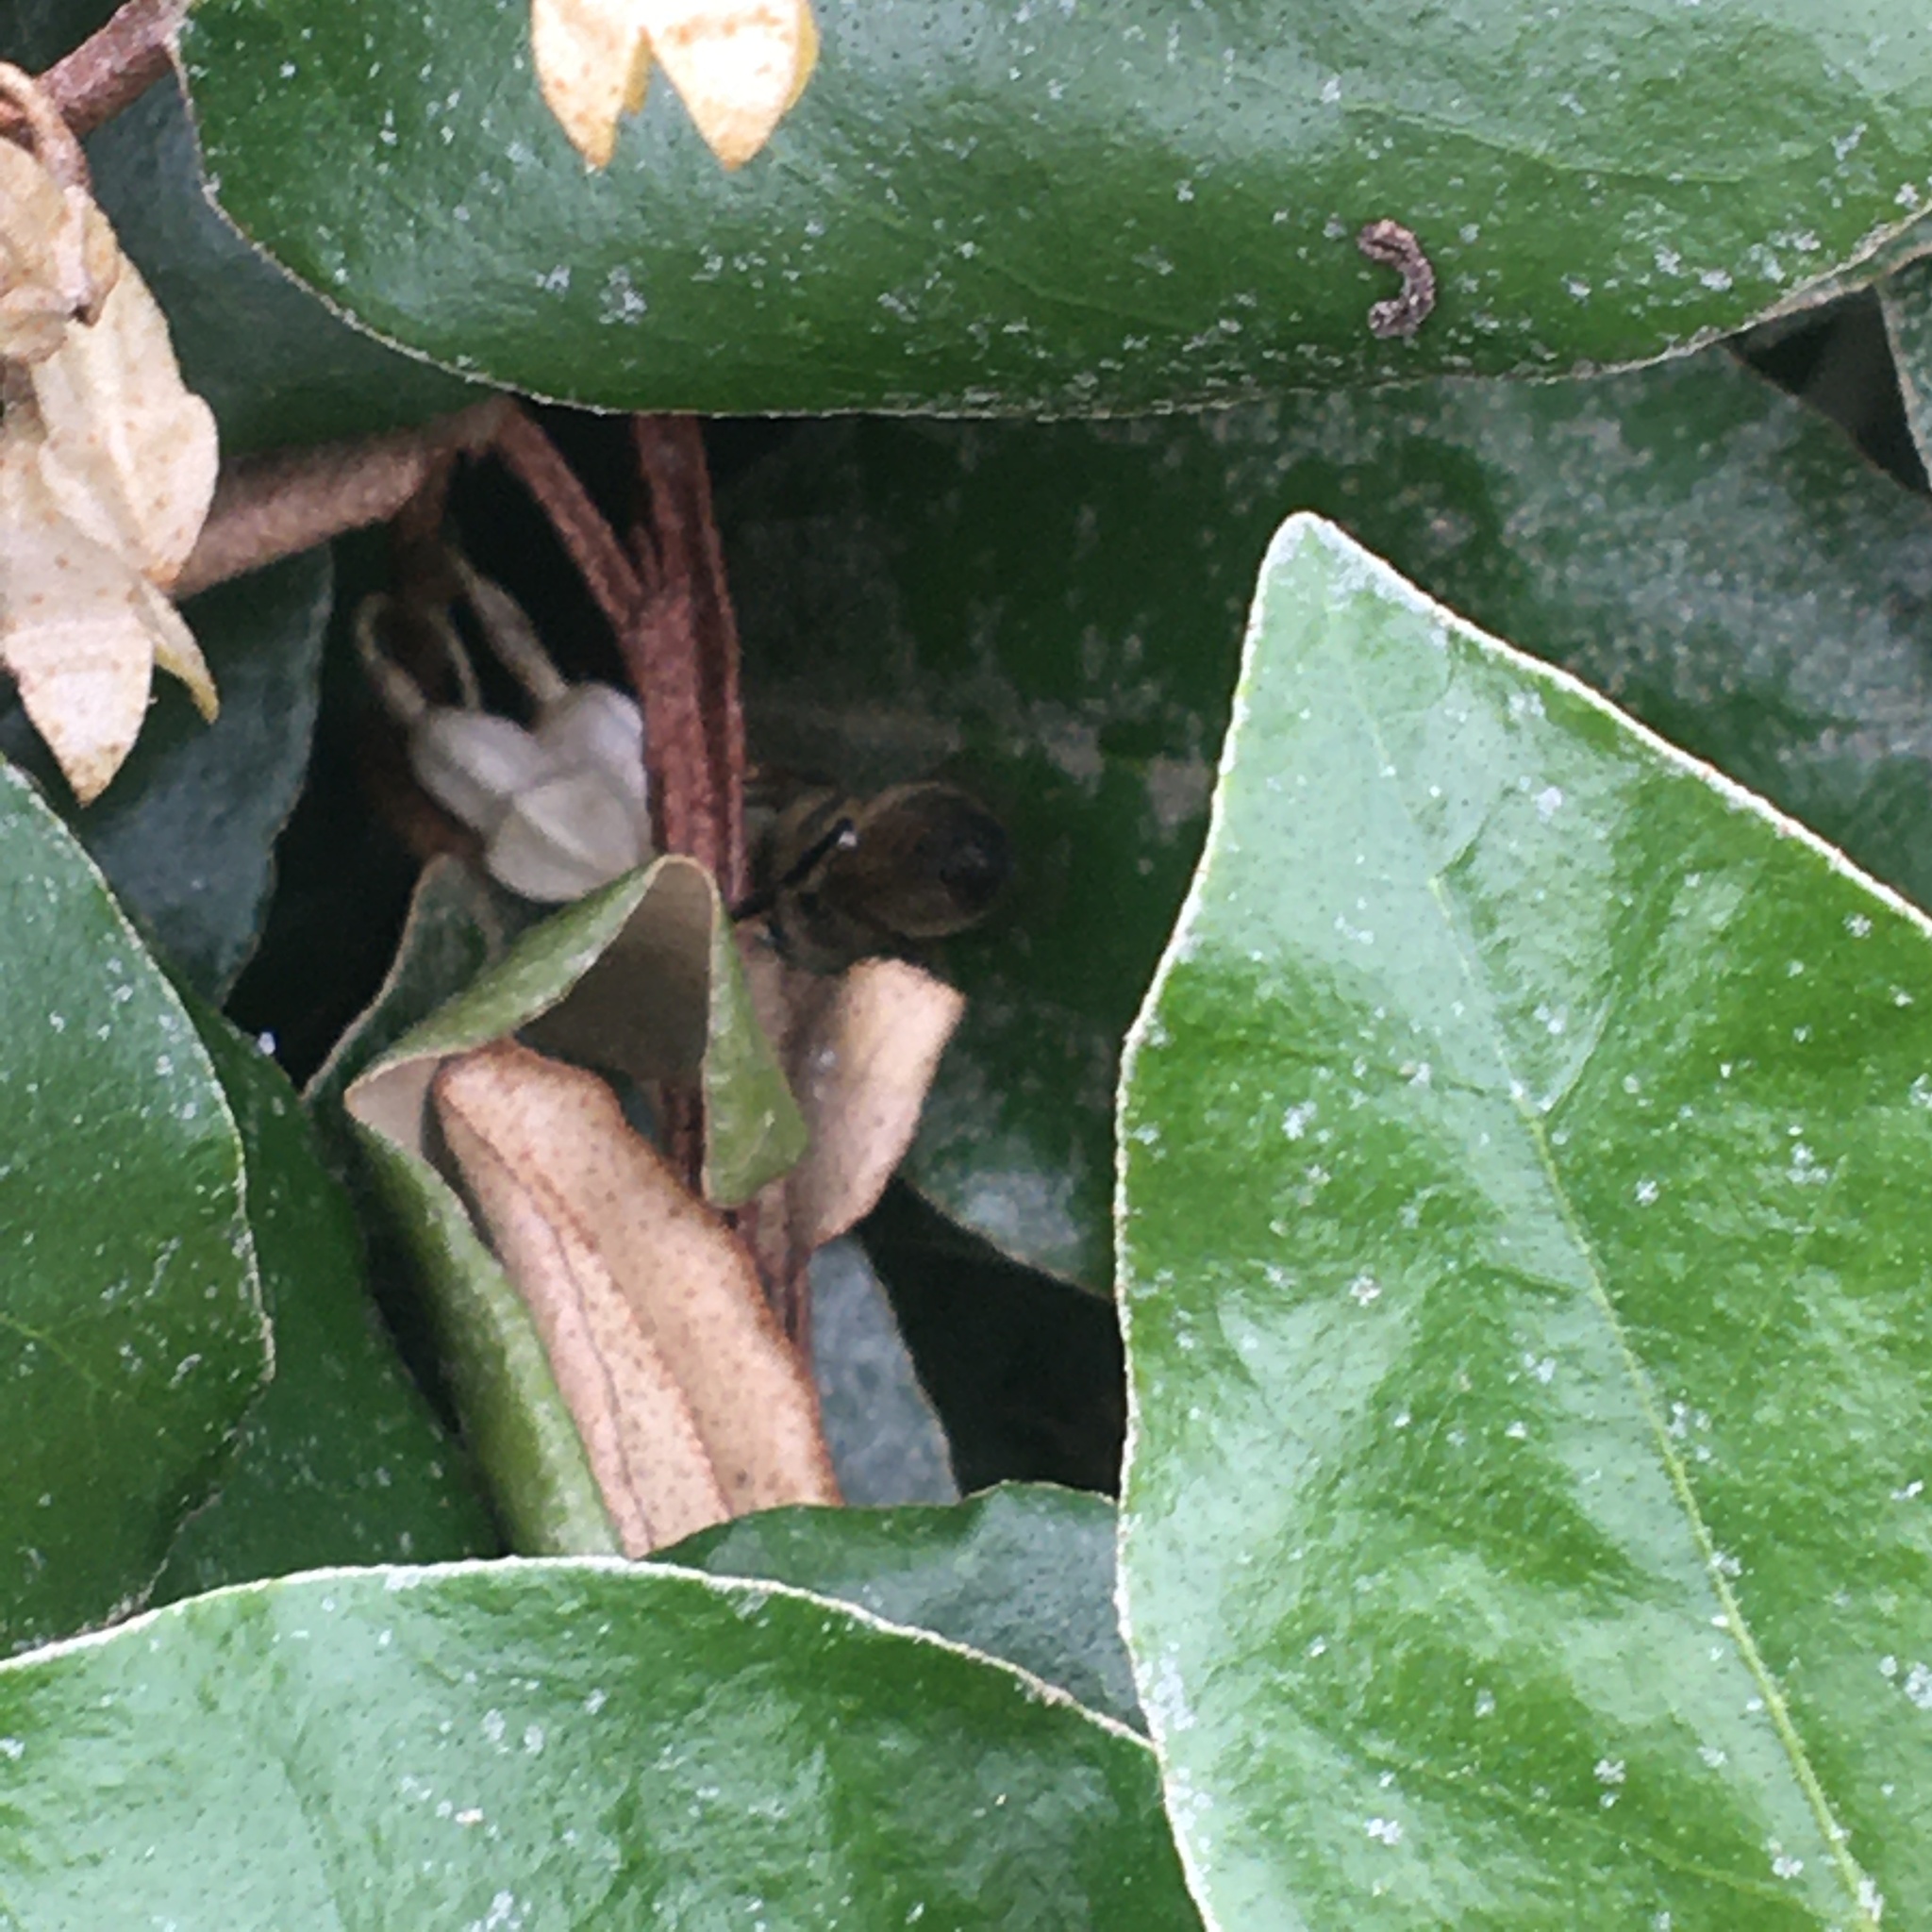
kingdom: Animalia
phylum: Arthropoda
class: Insecta
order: Hymenoptera
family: Apidae
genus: Apis
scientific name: Apis mellifera
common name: Honey bee
